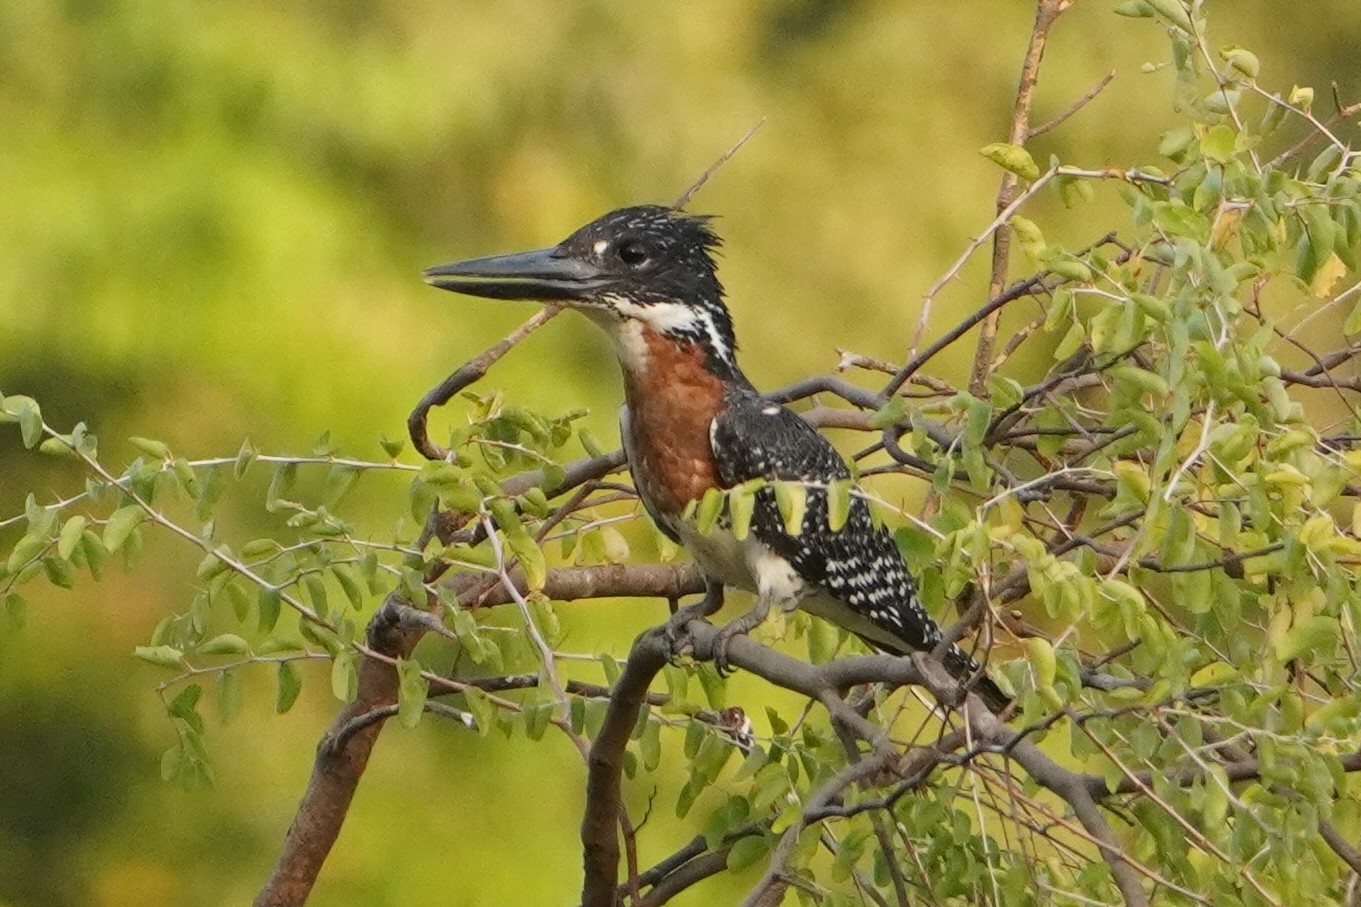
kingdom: Animalia
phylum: Chordata
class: Aves
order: Coraciiformes
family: Alcedinidae
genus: Megaceryle
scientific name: Megaceryle maxima
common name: Giant kingfisher
